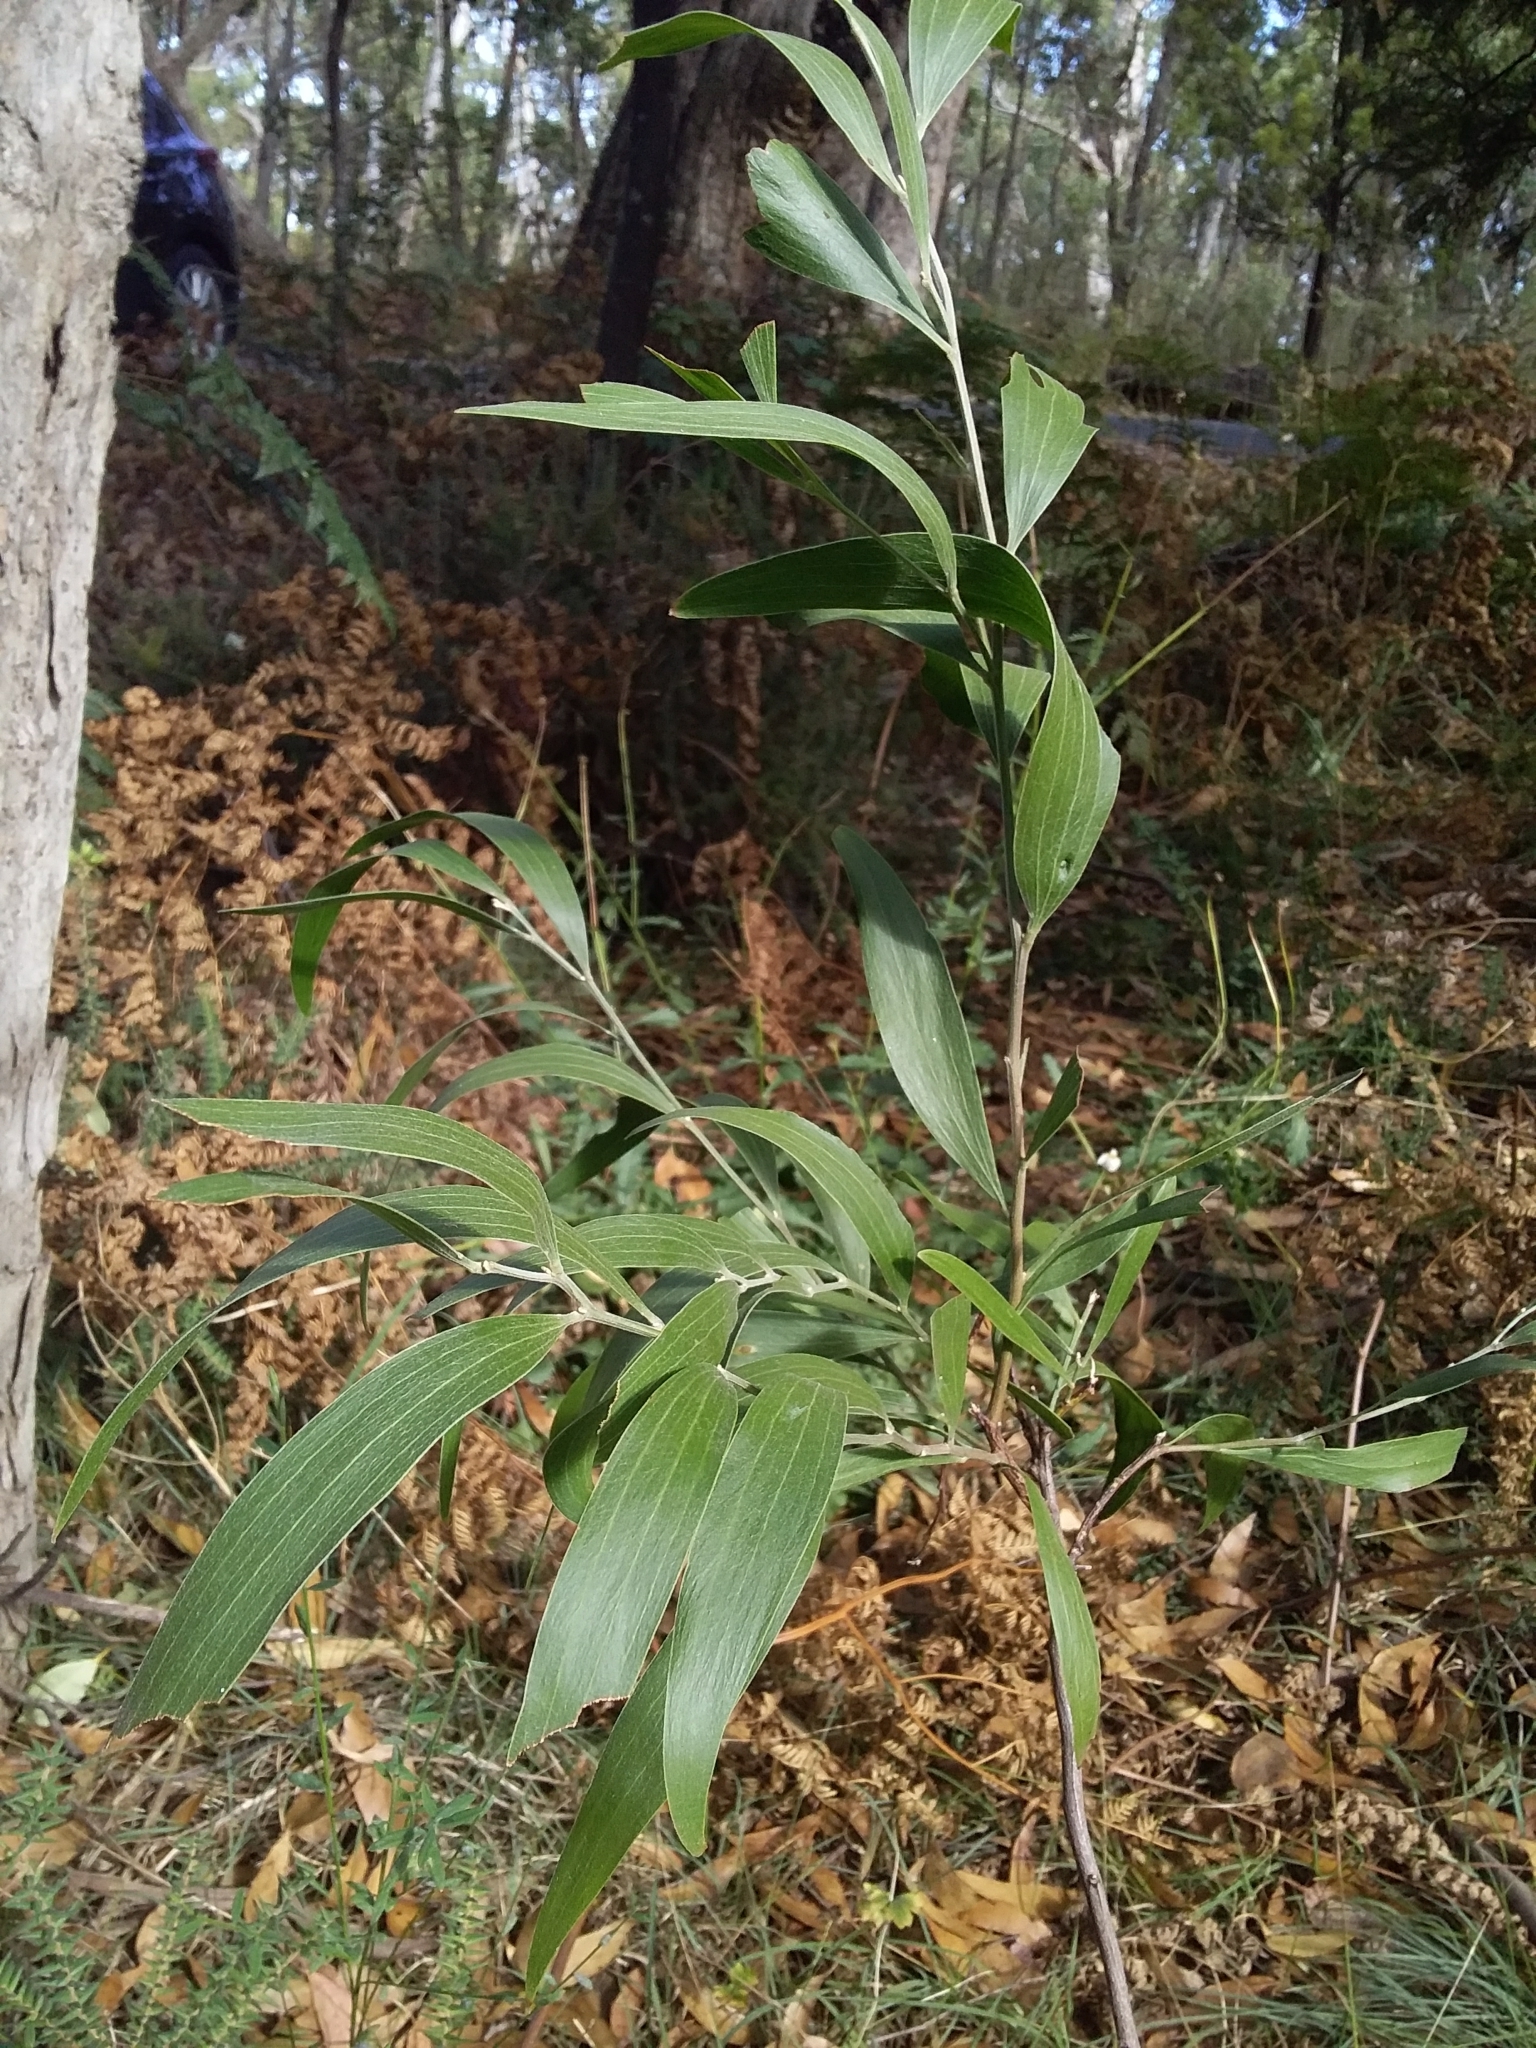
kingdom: Plantae
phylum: Tracheophyta
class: Magnoliopsida
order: Fabales
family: Fabaceae
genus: Acacia
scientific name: Acacia melanoxylon
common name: Blackwood
